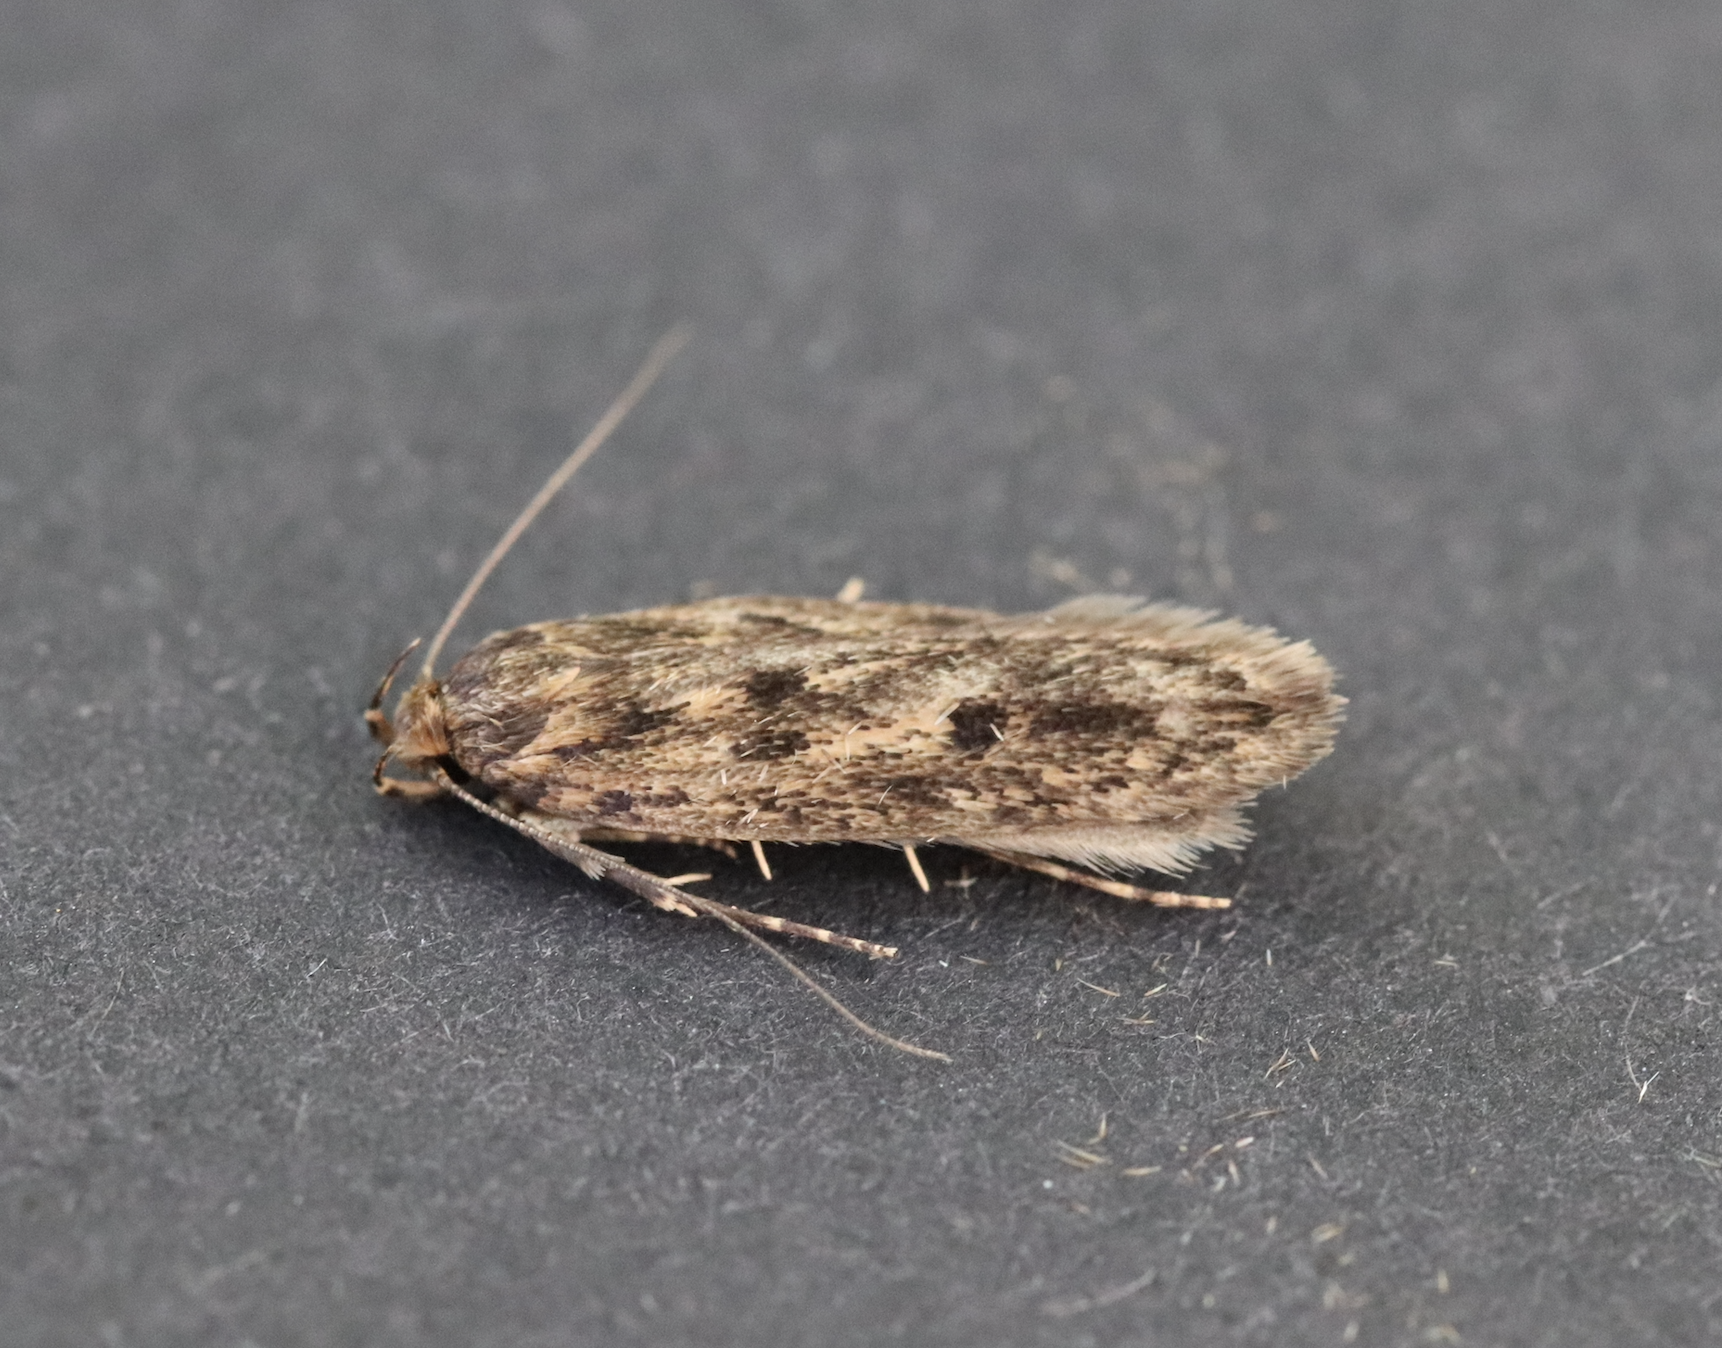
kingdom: Animalia
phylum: Arthropoda
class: Insecta
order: Lepidoptera
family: Oecophoridae
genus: Hofmannophila
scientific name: Hofmannophila pseudospretella
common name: Brown house moth
